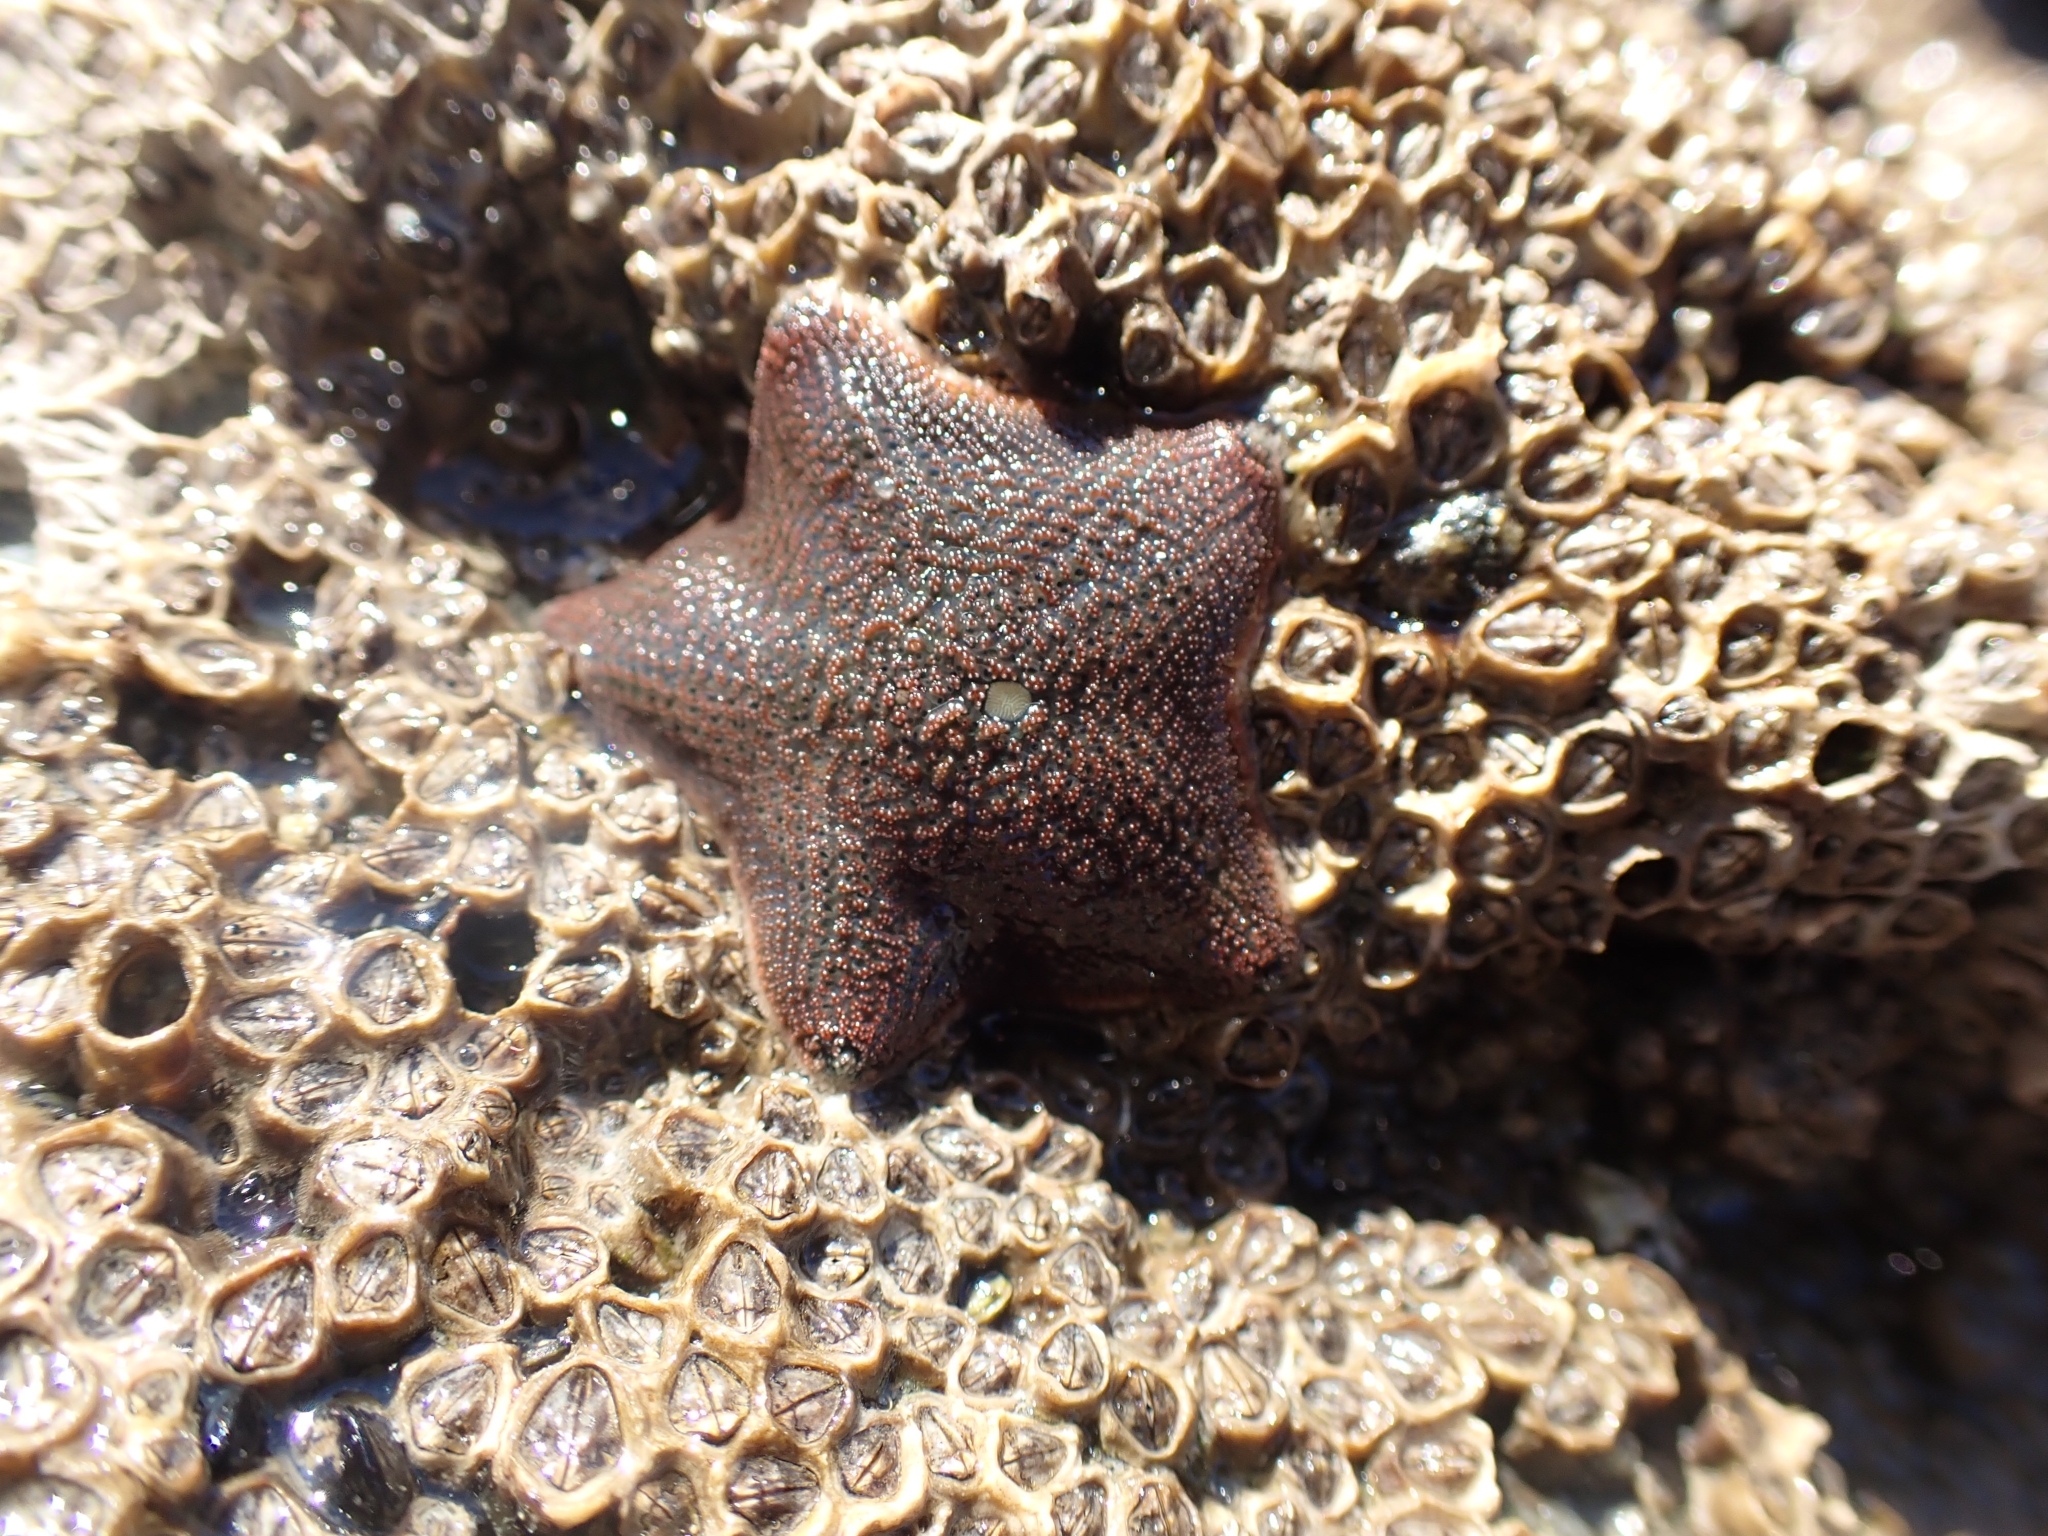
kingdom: Animalia
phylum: Echinodermata
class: Asteroidea
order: Valvatida
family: Asterinidae
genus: Patiriella
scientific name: Patiriella regularis
